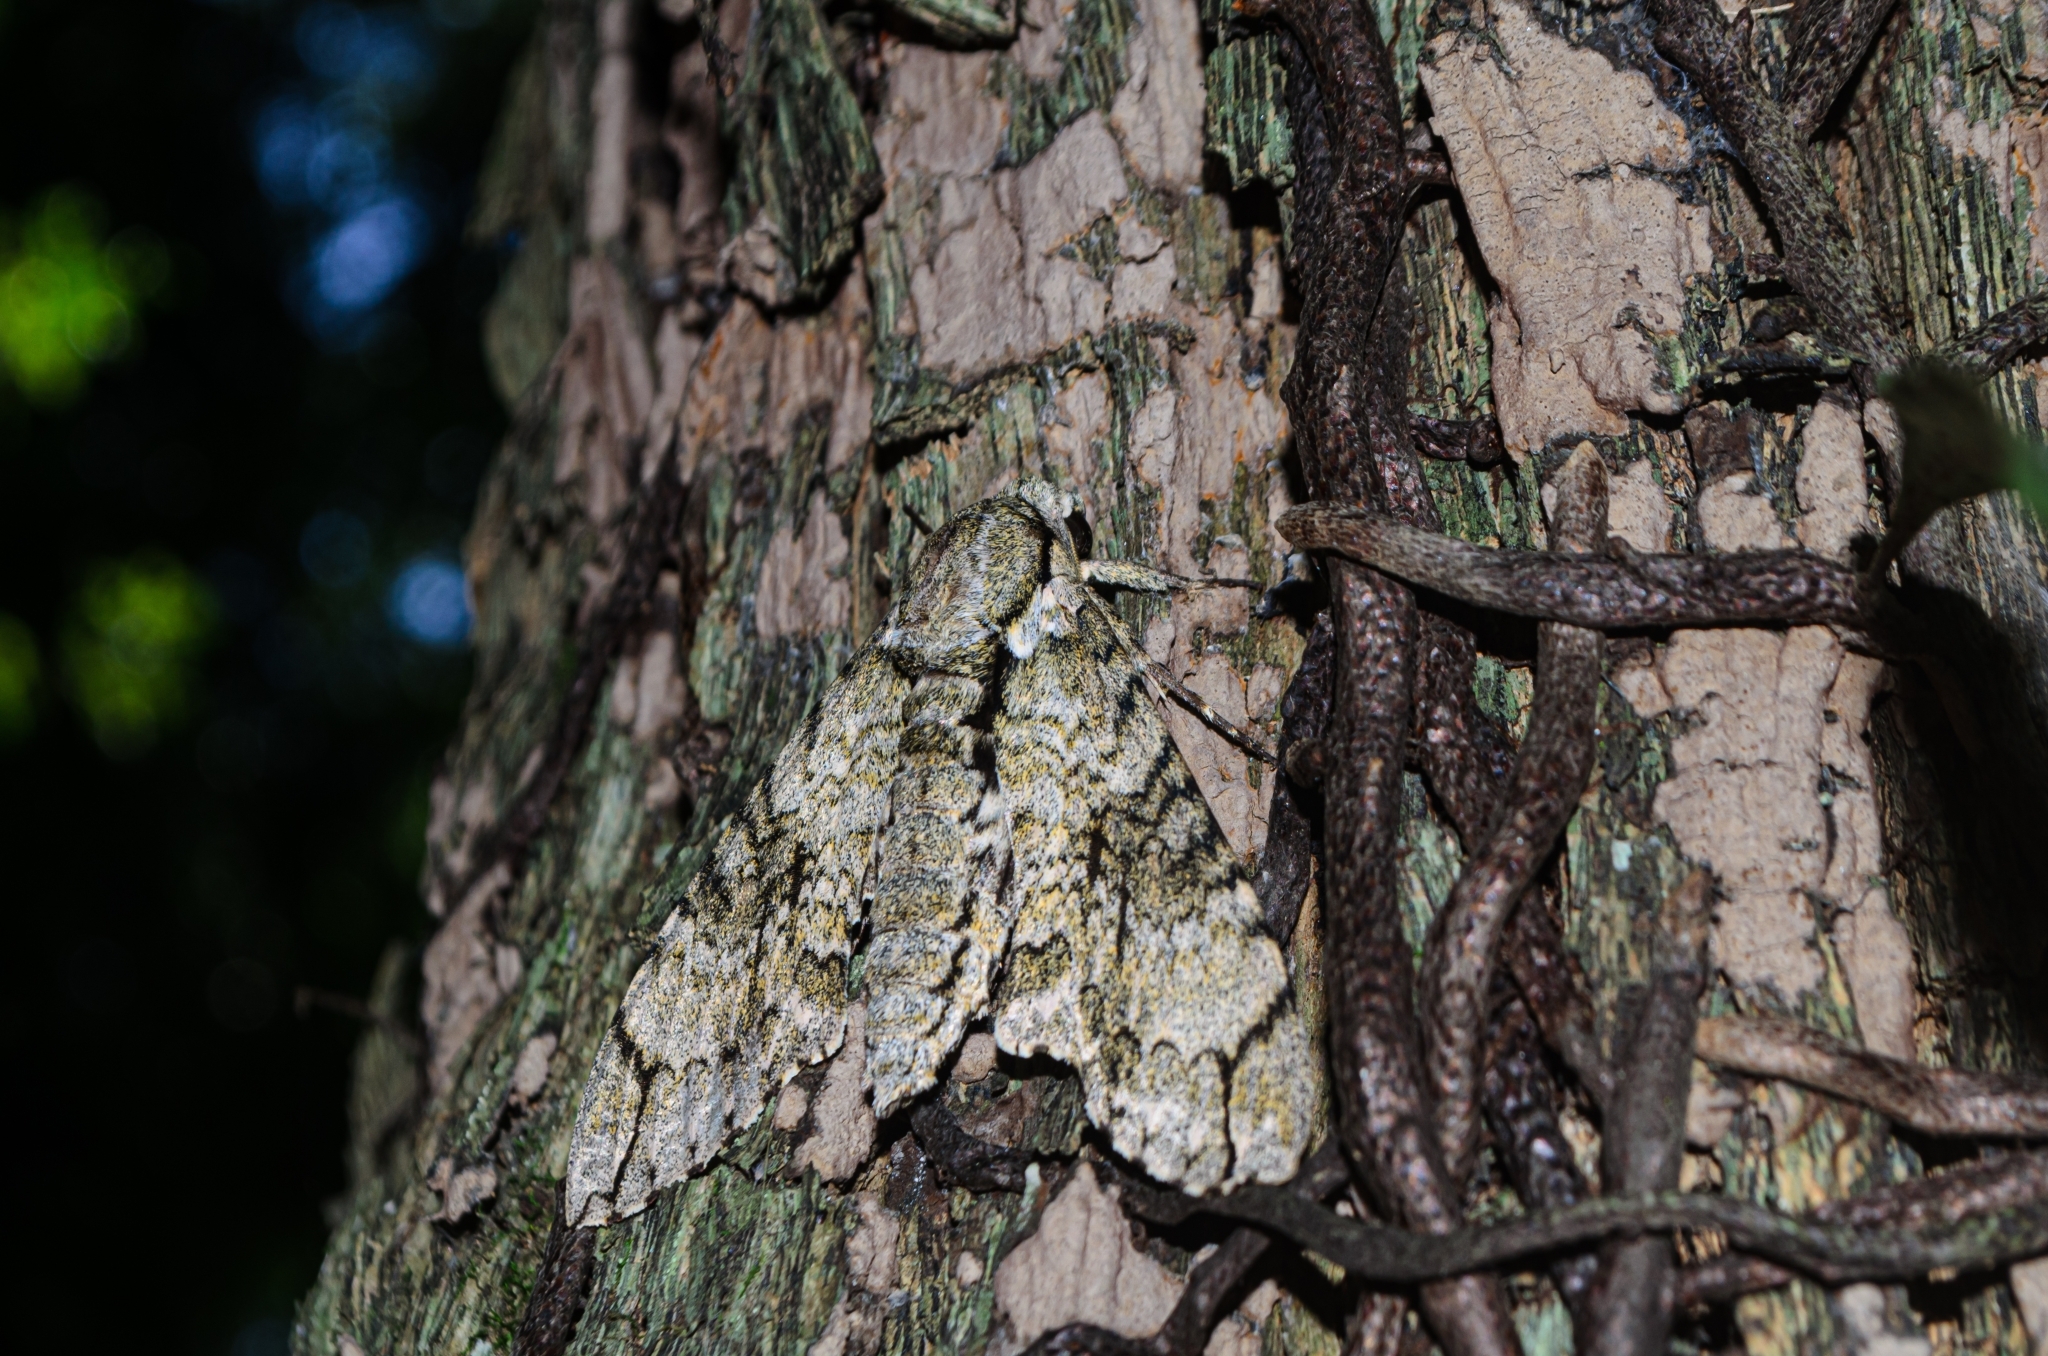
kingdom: Animalia
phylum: Arthropoda
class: Insecta
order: Lepidoptera
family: Sphingidae
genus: Manduca
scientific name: Manduca florestan
